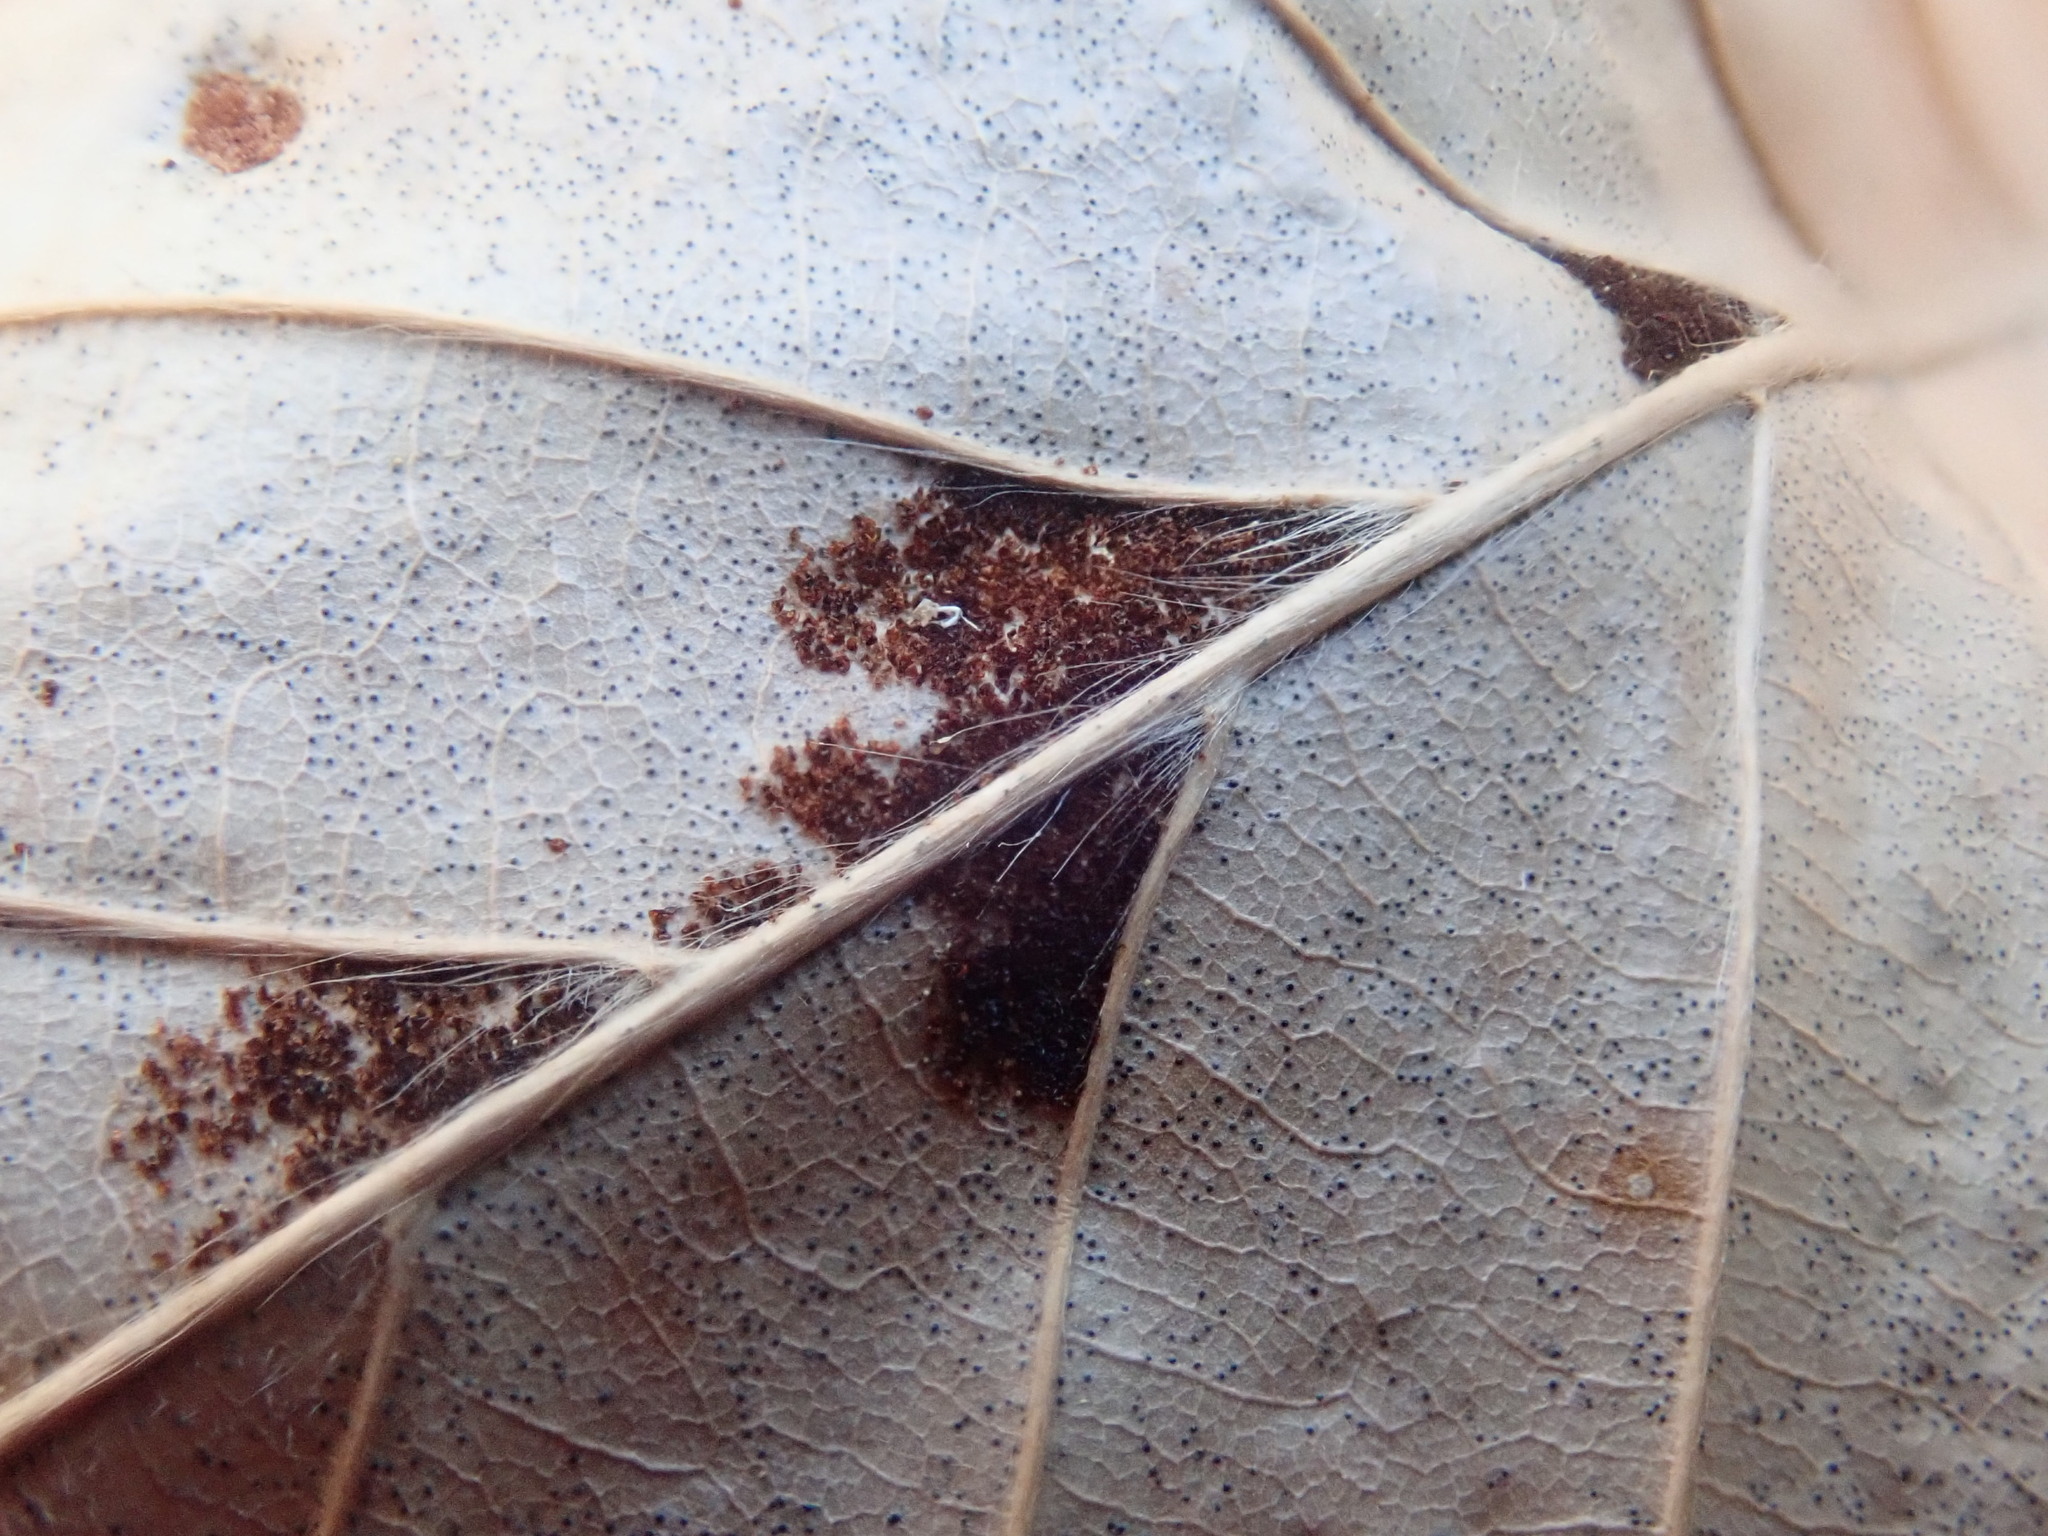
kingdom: Animalia
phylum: Arthropoda
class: Arachnida
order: Trombidiformes
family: Eriophyidae
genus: Acalitus
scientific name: Acalitus
